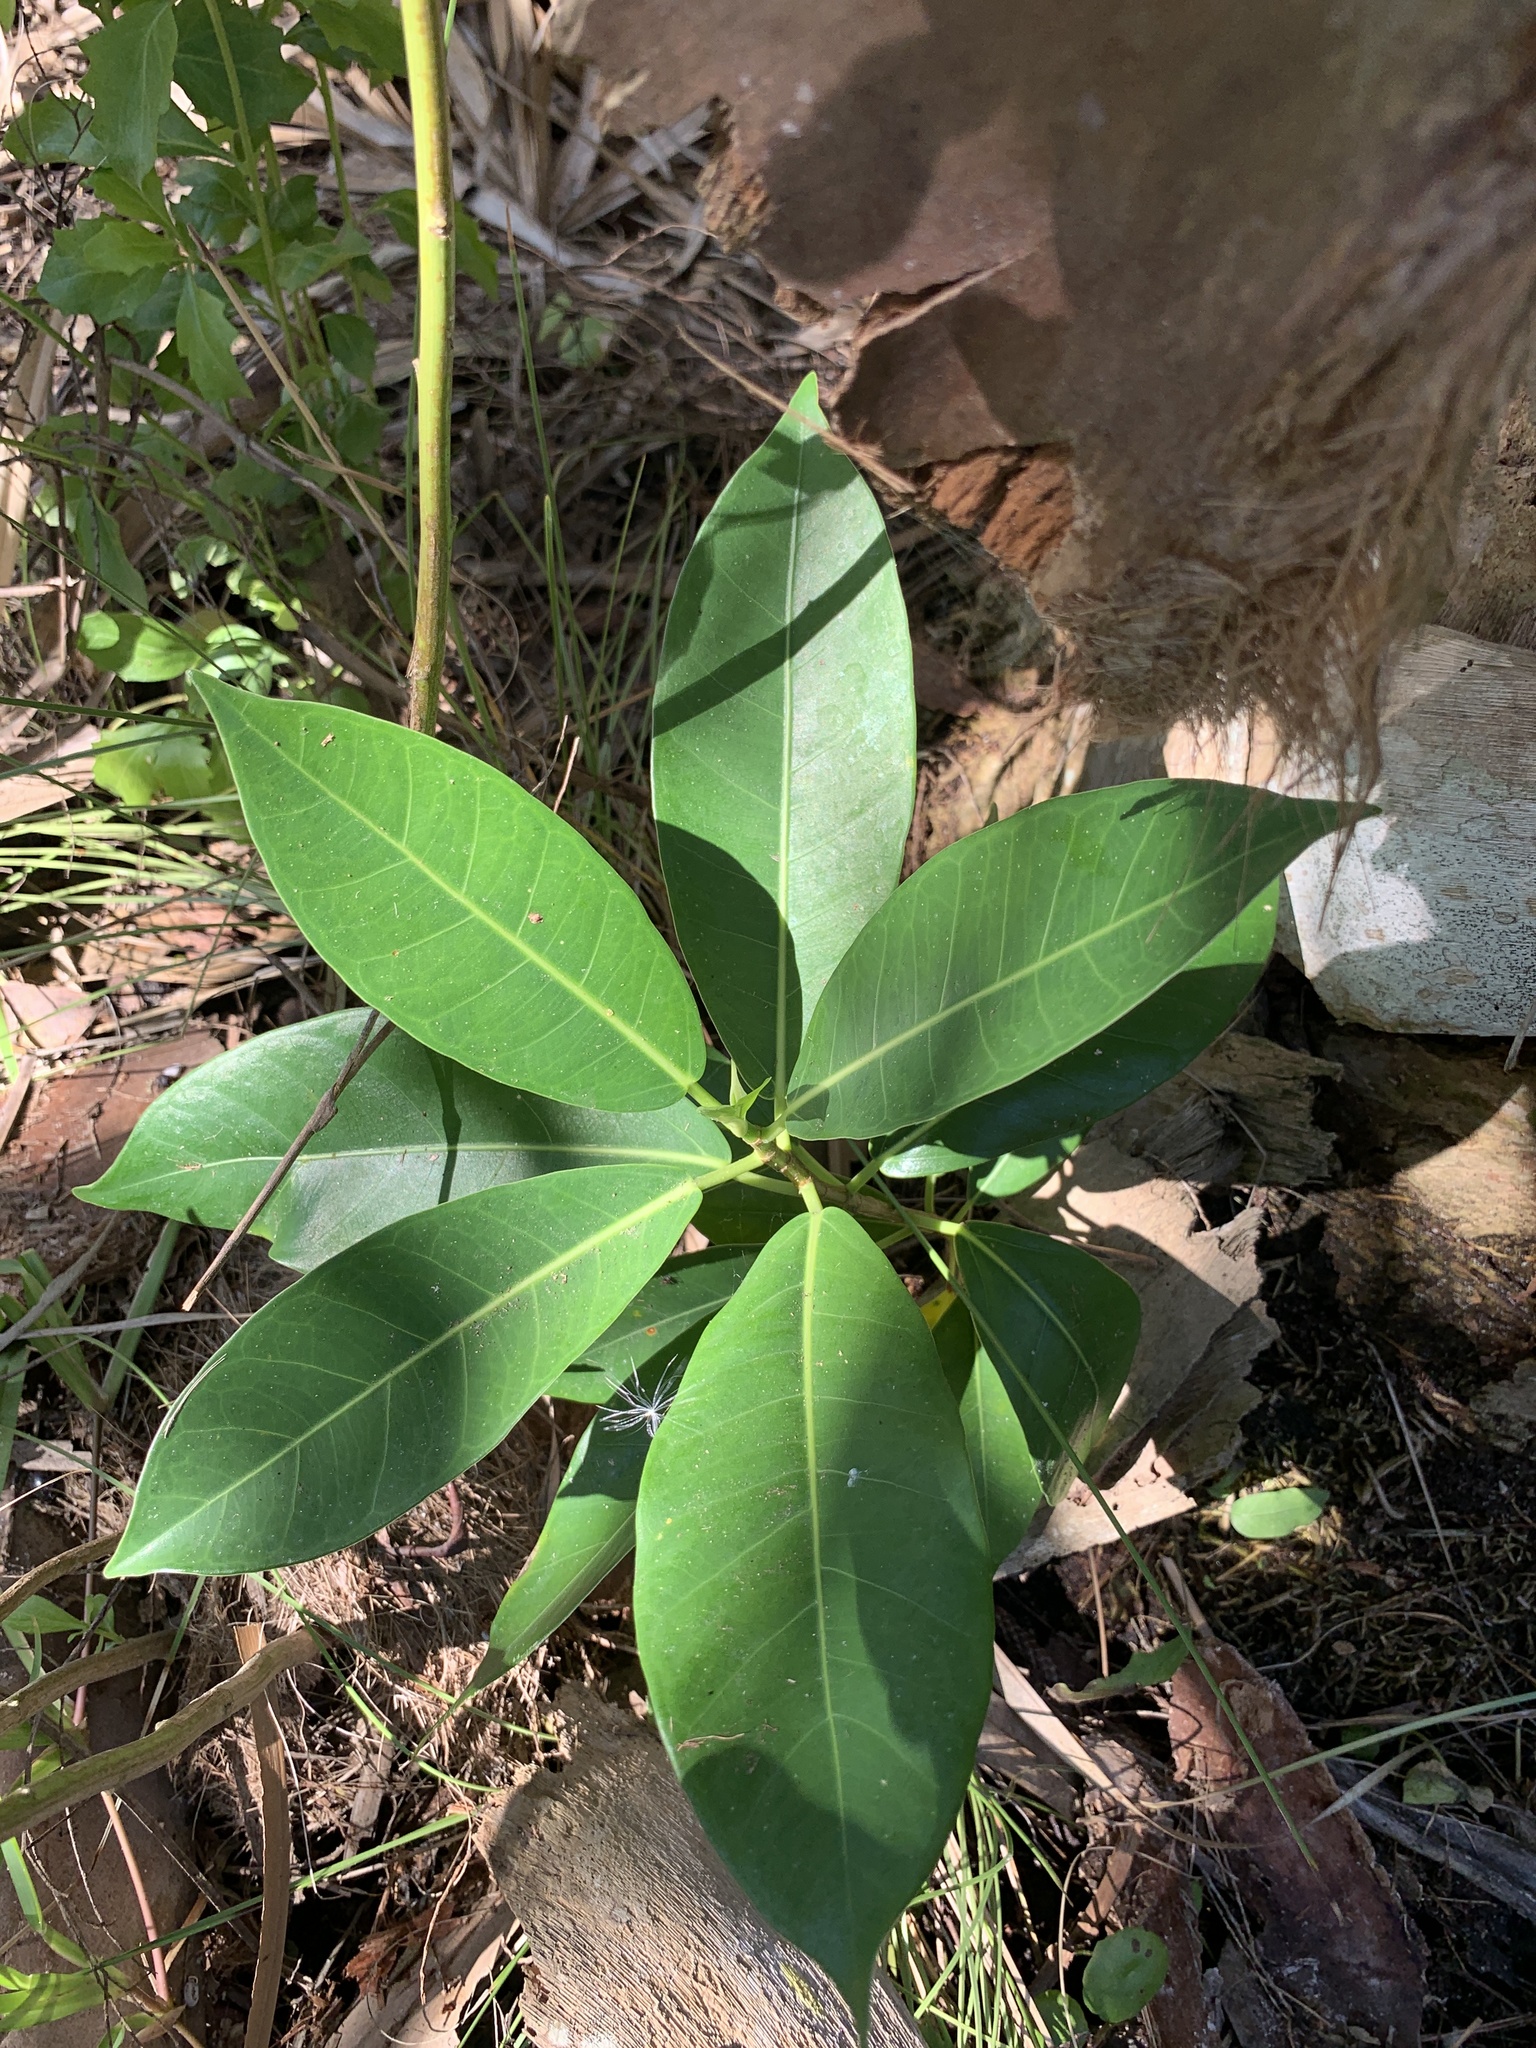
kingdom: Plantae
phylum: Tracheophyta
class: Magnoliopsida
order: Rosales
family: Moraceae
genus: Ficus
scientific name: Ficus aurea
